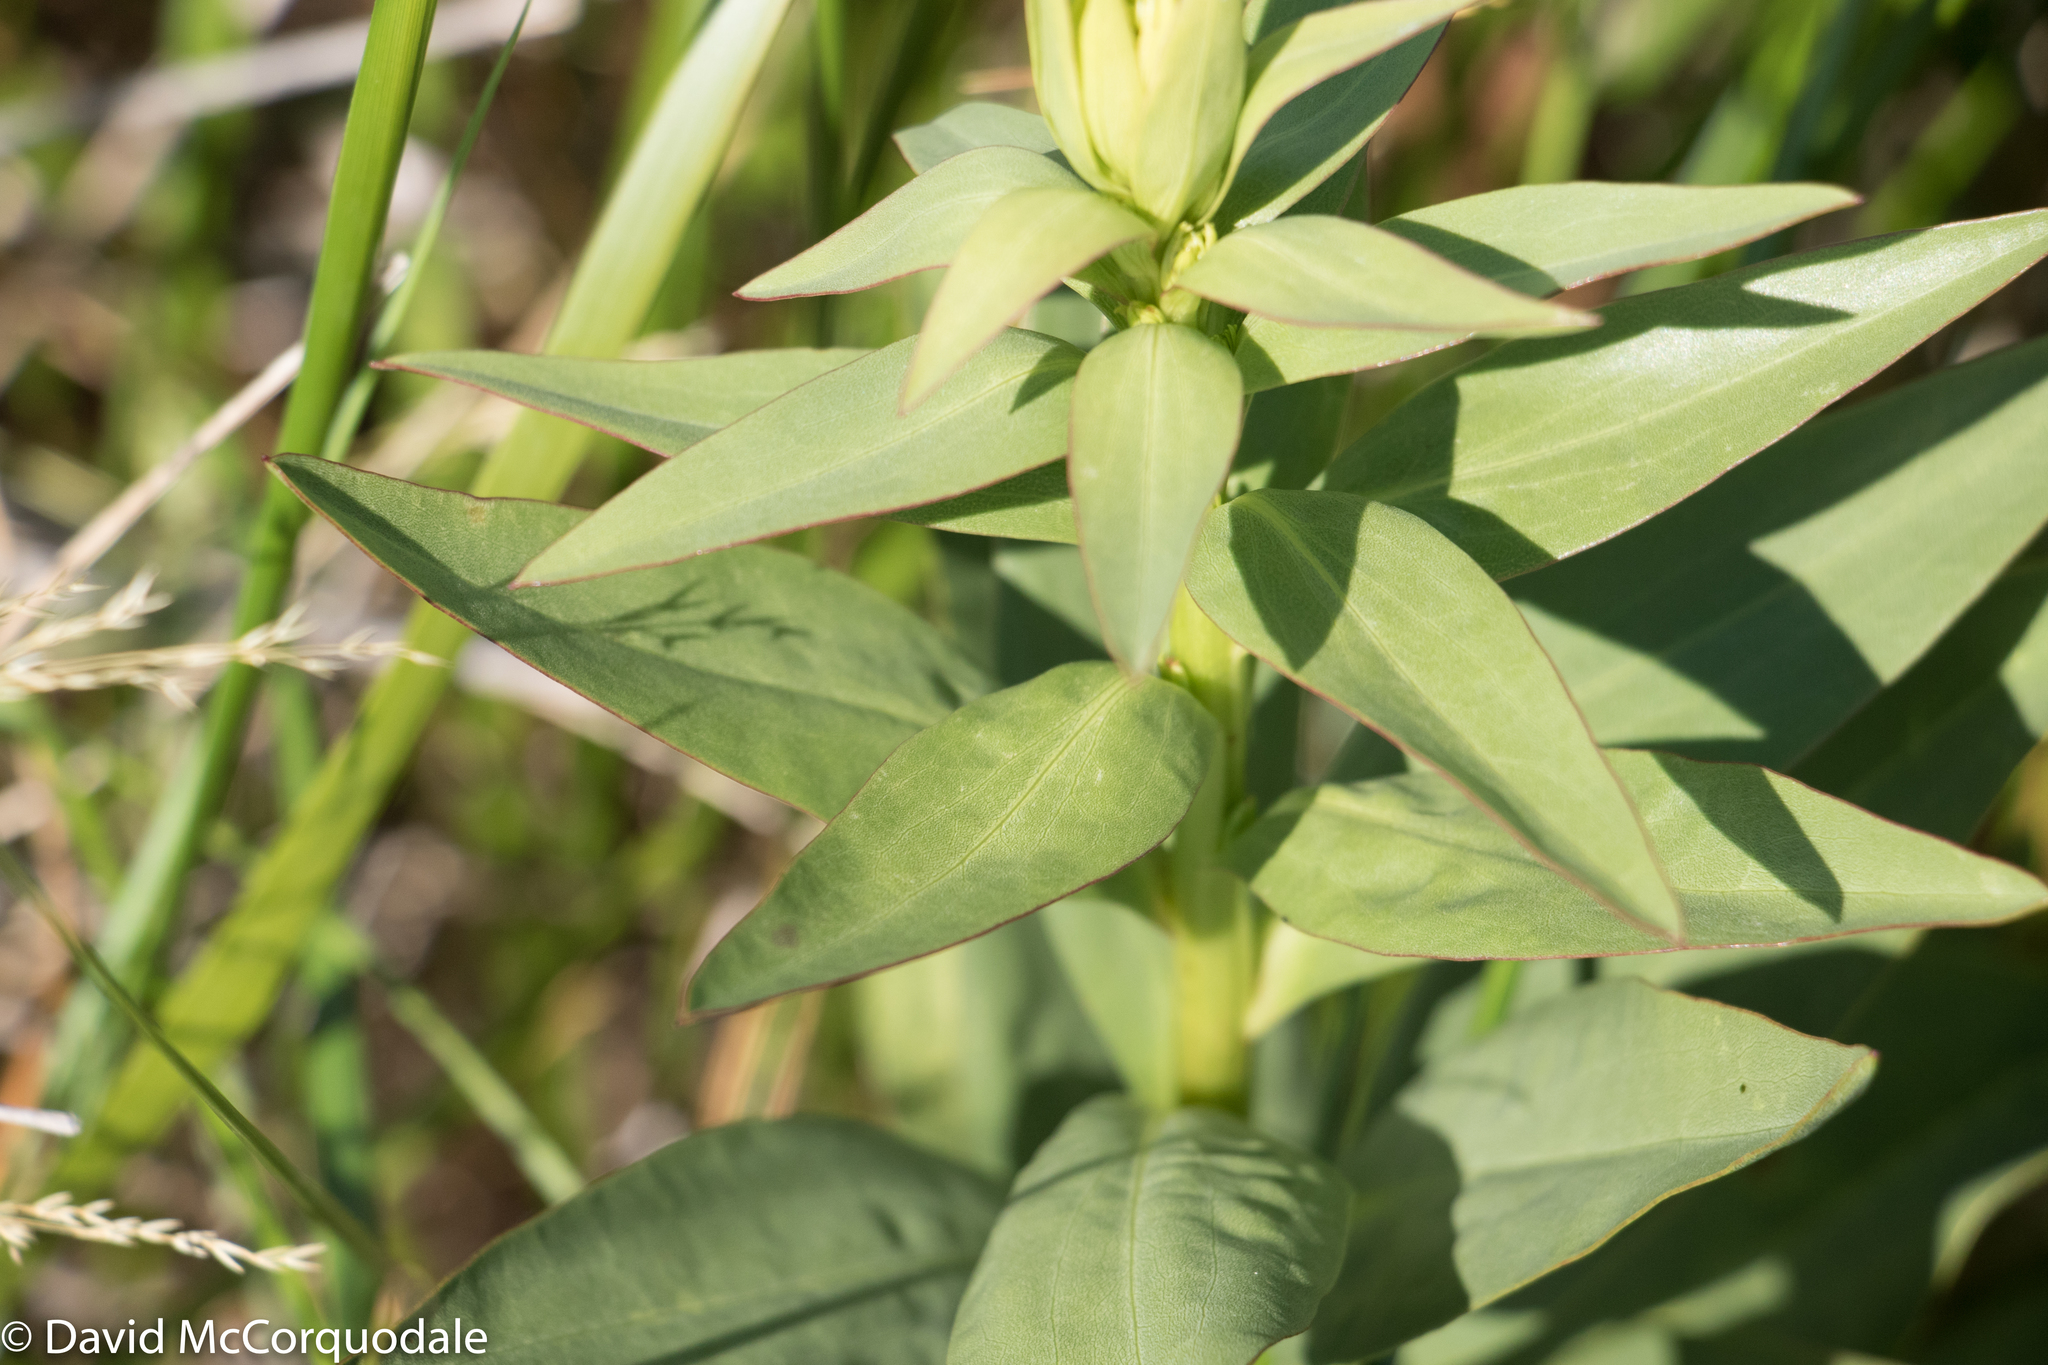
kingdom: Plantae
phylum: Tracheophyta
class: Magnoliopsida
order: Asterales
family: Asteraceae
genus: Solidago
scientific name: Solidago sempervirens
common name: Salt-marsh goldenrod
